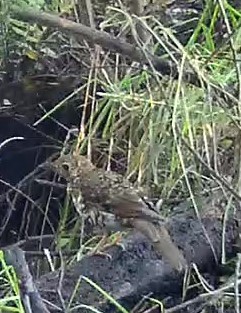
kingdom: Animalia
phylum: Chordata
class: Aves
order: Passeriformes
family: Turdidae
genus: Zoothera
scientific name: Zoothera lunulata
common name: Bassian thrush
